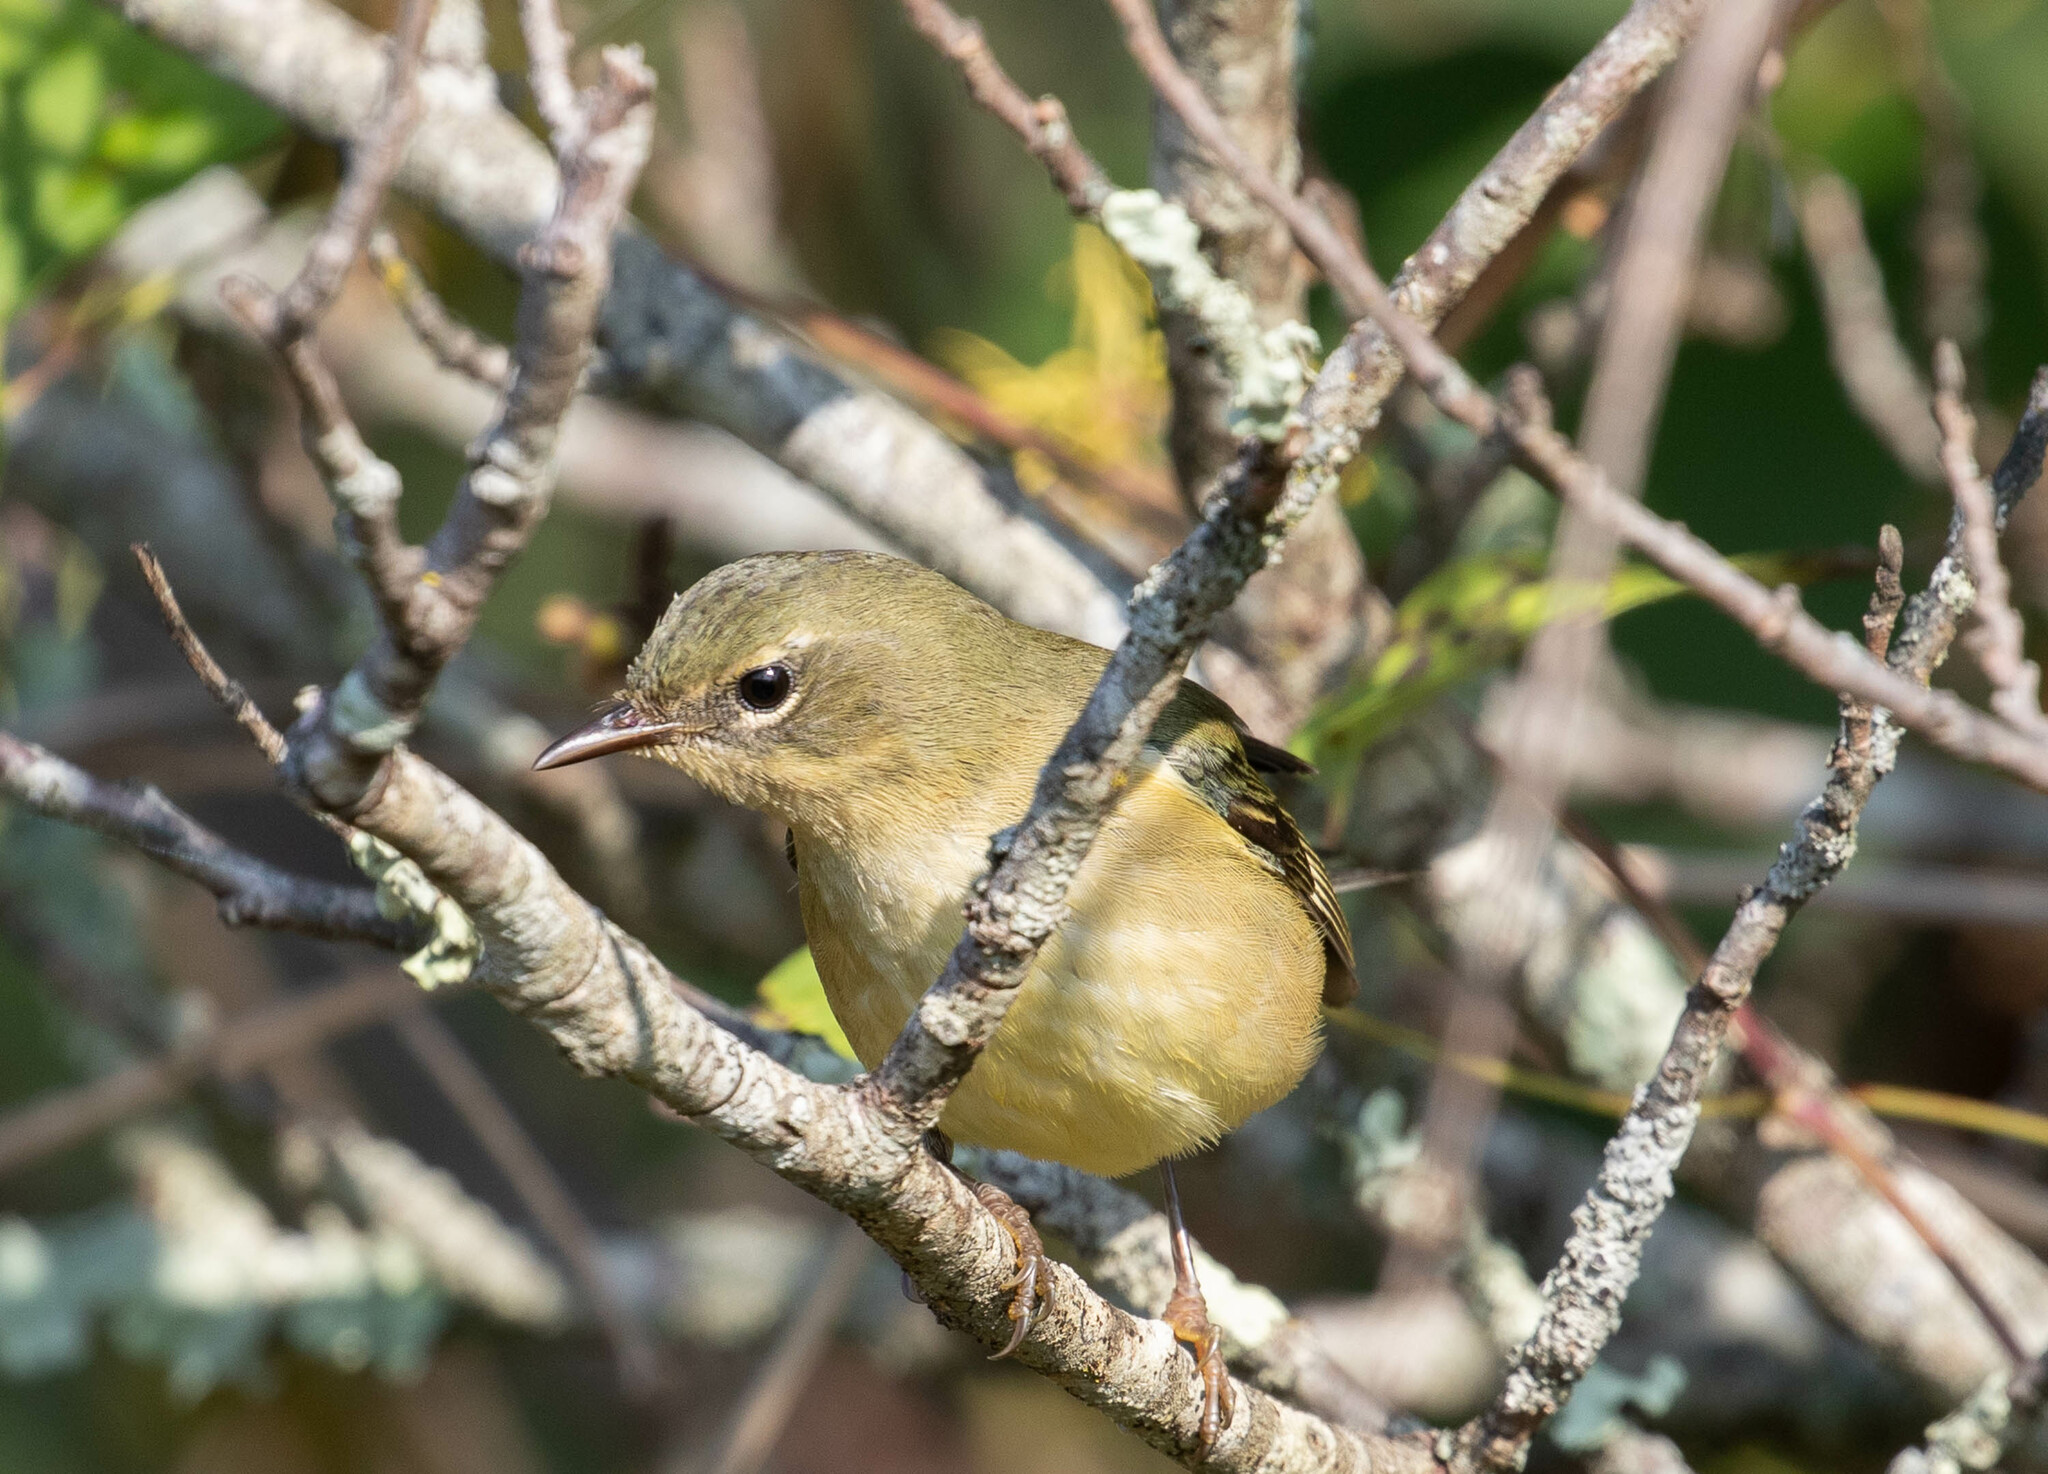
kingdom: Animalia
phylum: Chordata
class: Aves
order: Passeriformes
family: Parulidae
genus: Setophaga
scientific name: Setophaga caerulescens
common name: Black-throated blue warbler
